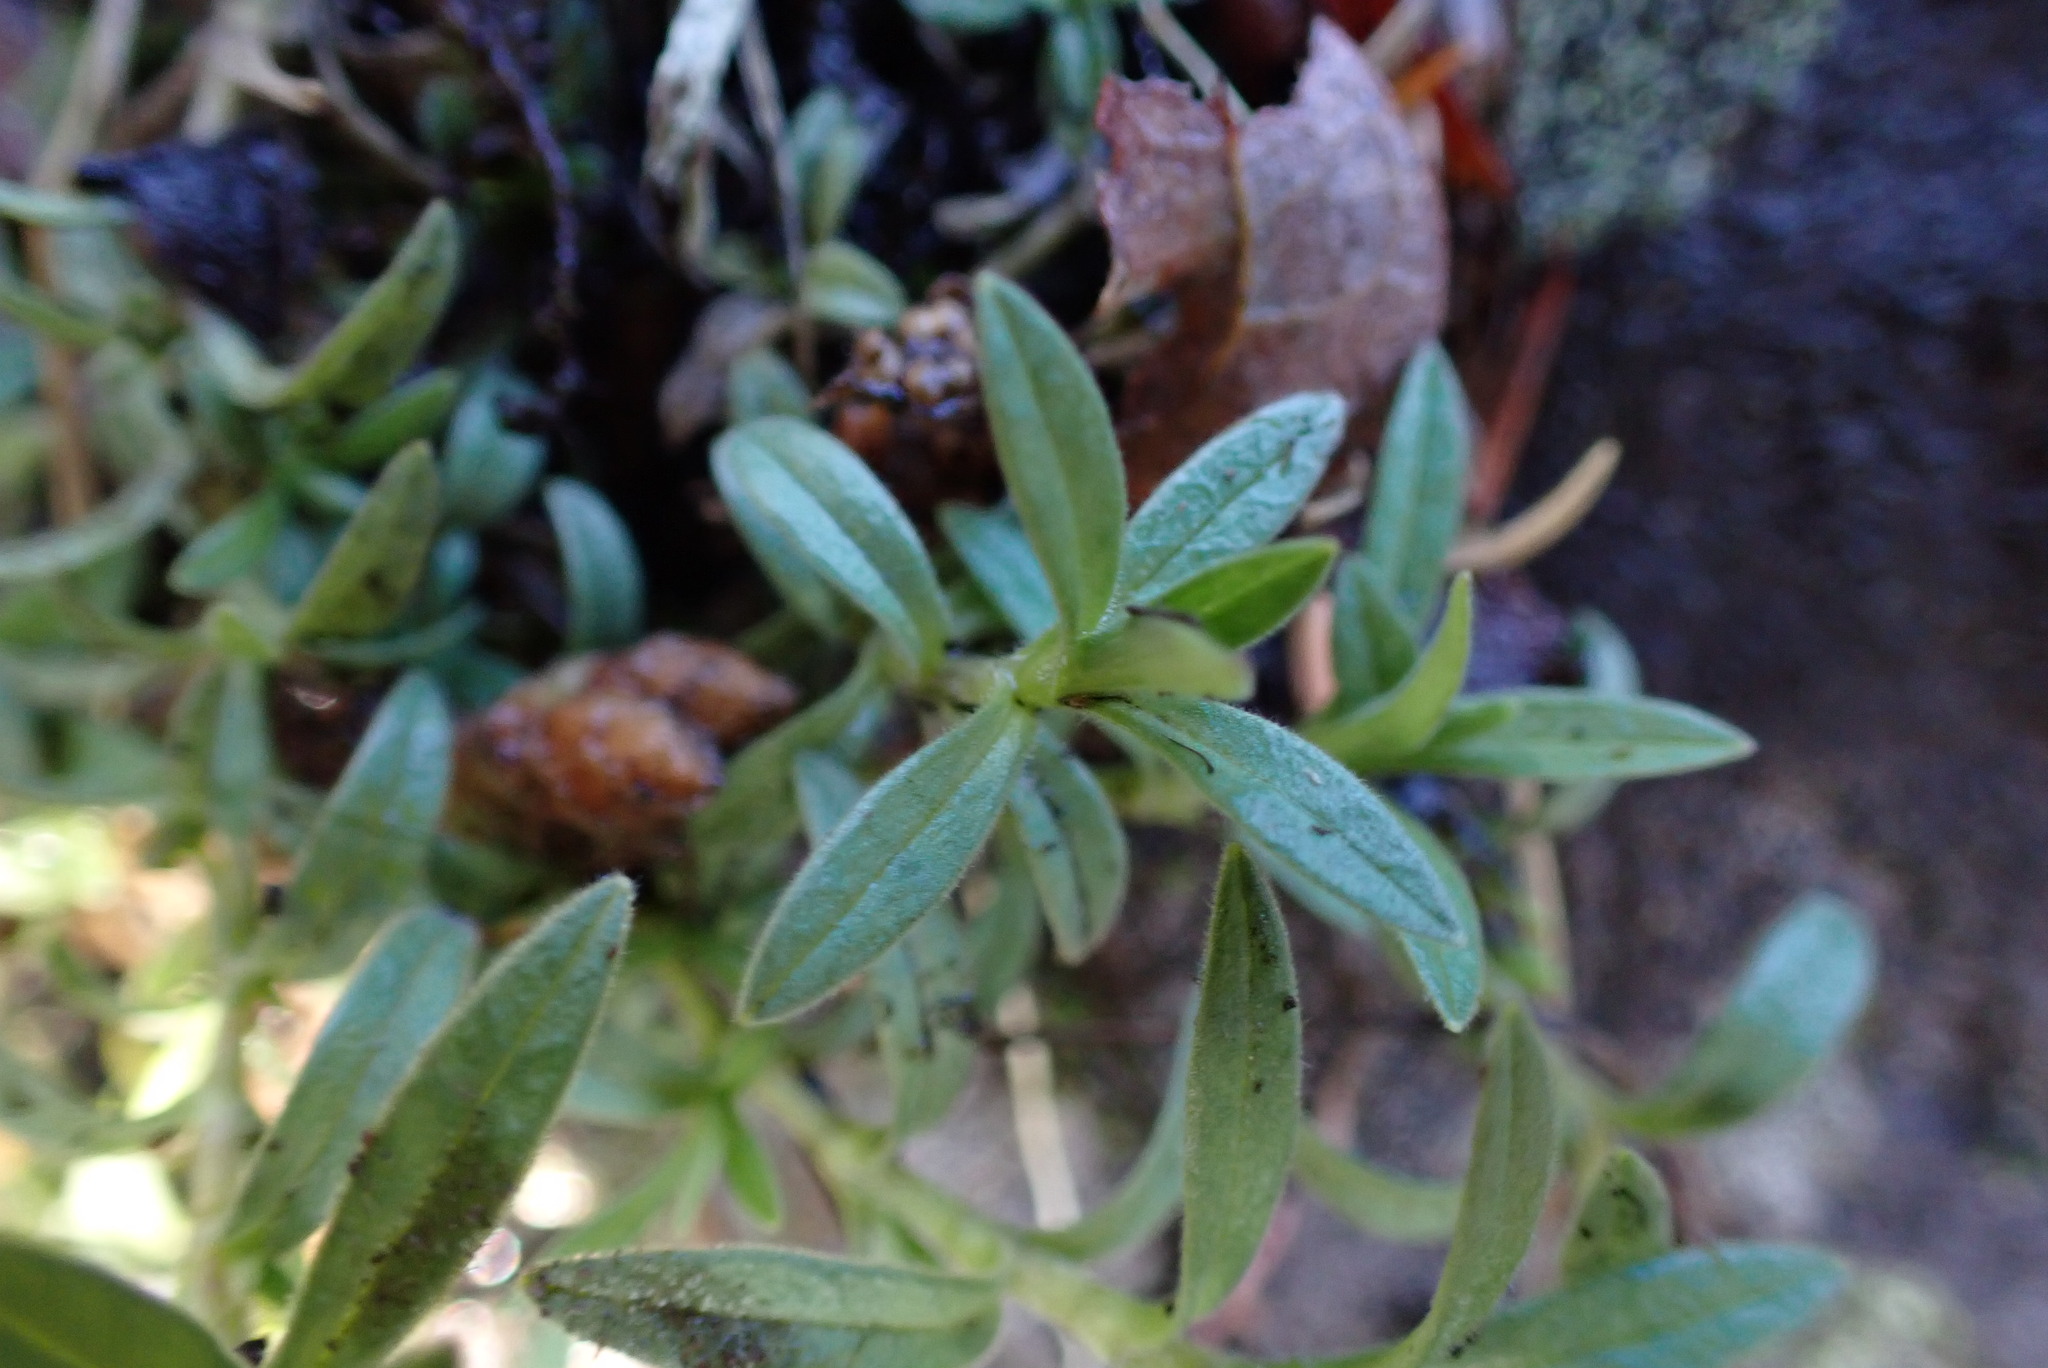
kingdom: Plantae
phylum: Tracheophyta
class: Magnoliopsida
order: Caryophyllales
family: Caryophyllaceae
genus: Cerastium
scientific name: Cerastium arvense
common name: Field mouse-ear
